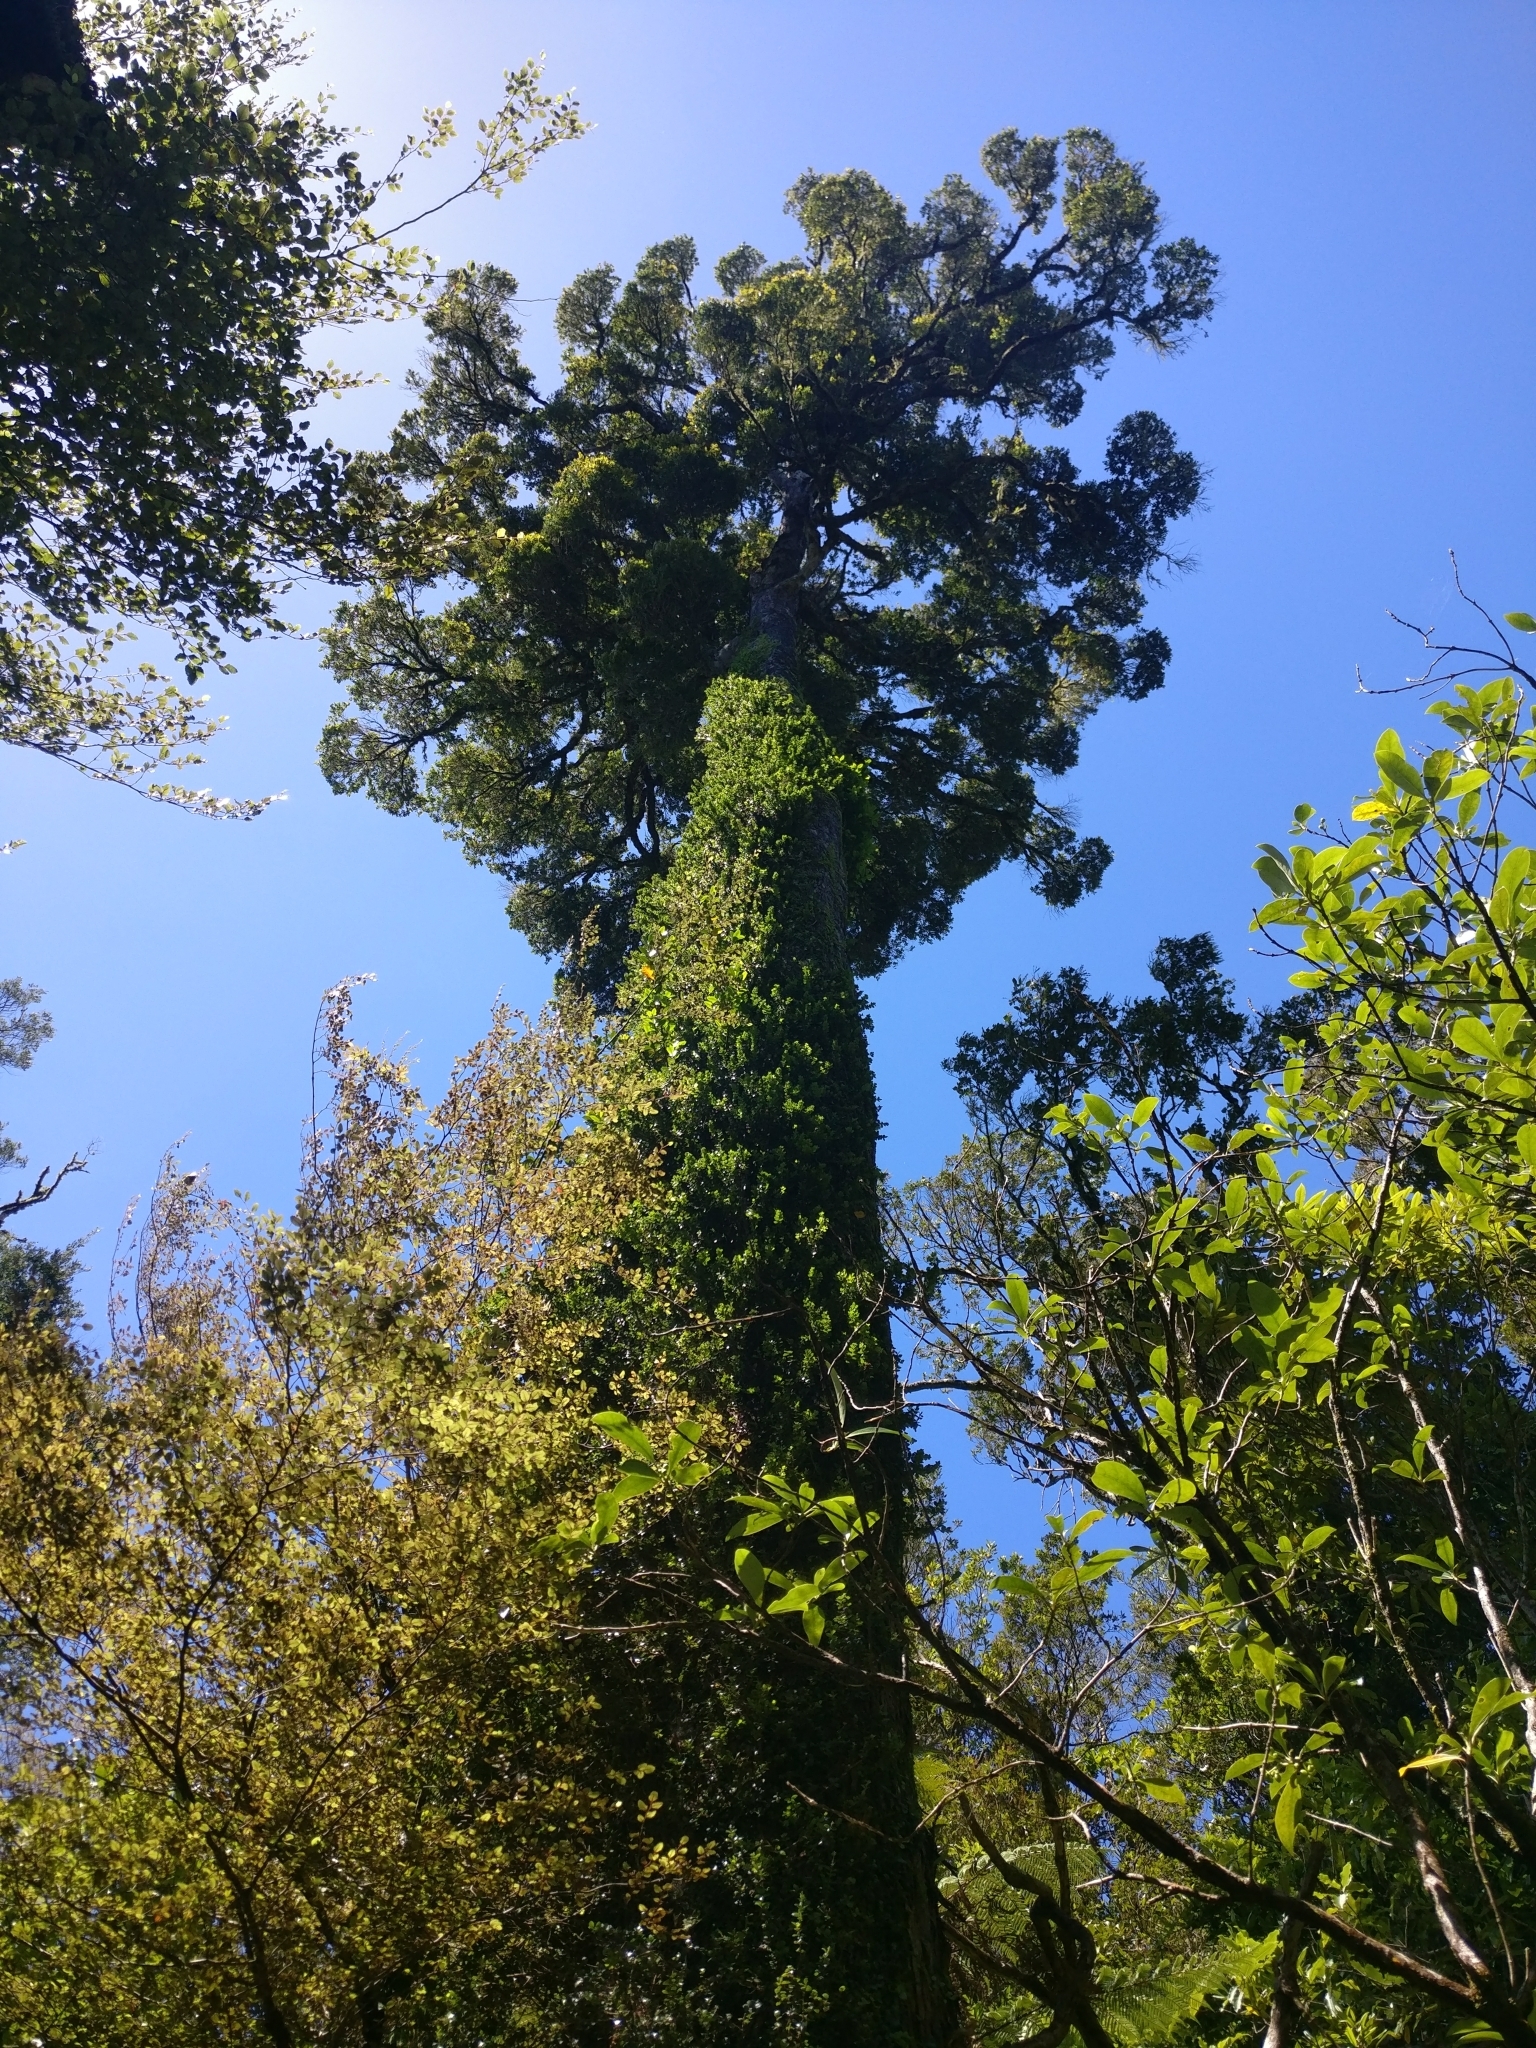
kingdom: Plantae
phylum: Tracheophyta
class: Pinopsida
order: Pinales
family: Podocarpaceae
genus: Dacrydium
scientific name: Dacrydium cupressinum
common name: Red pine
